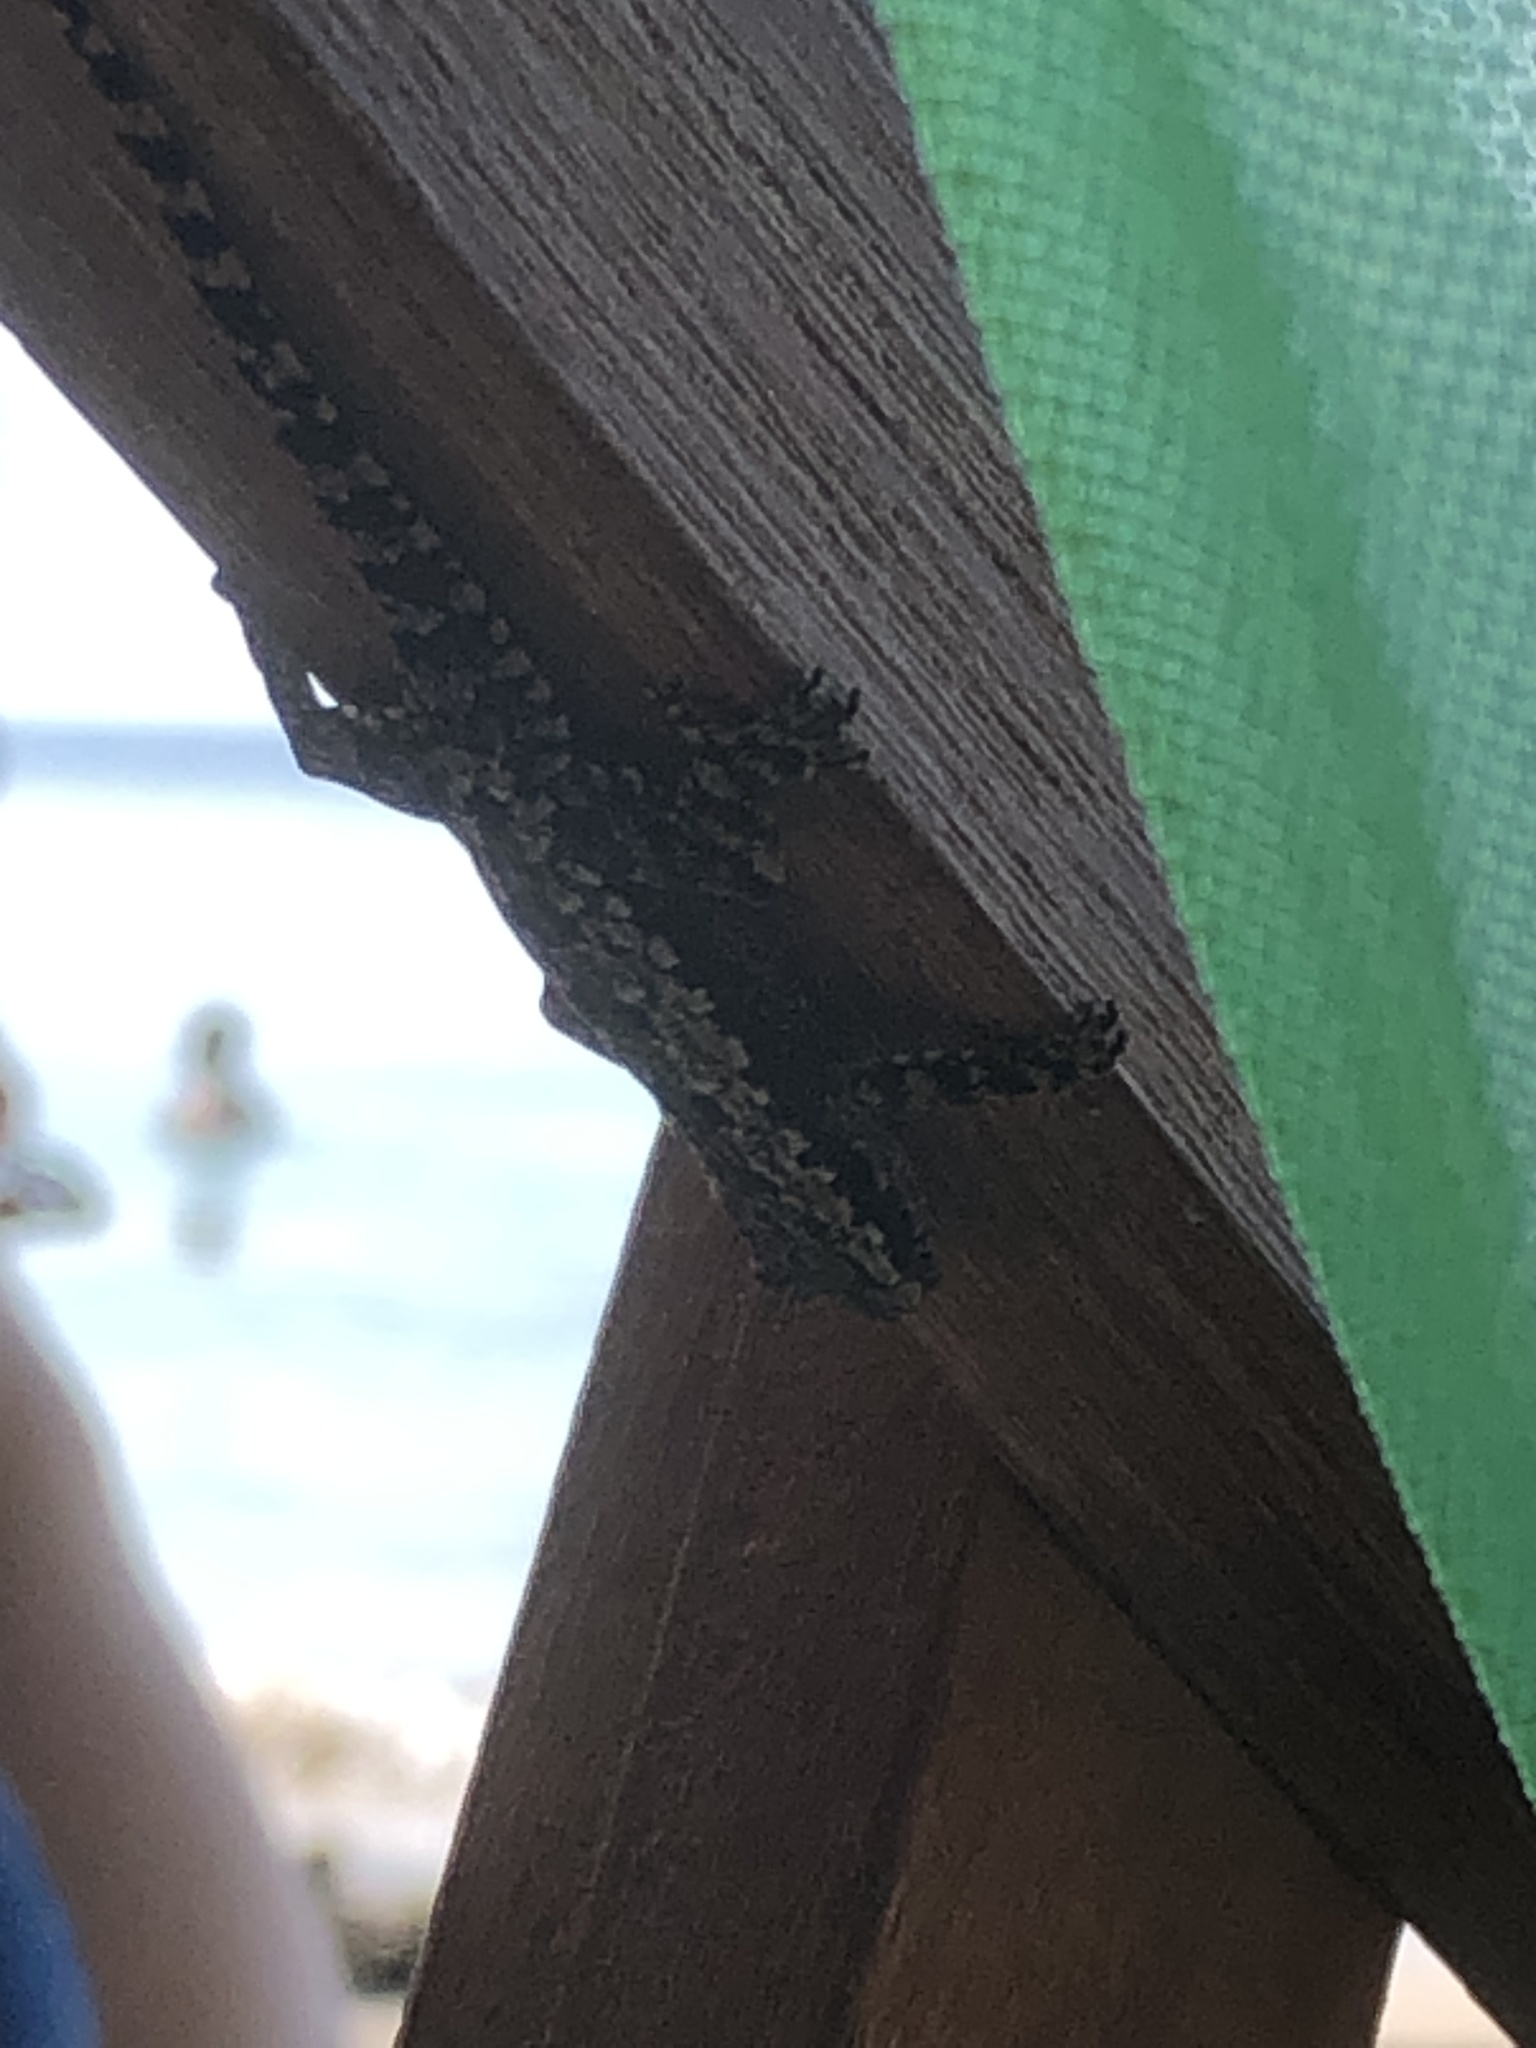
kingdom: Animalia
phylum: Chordata
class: Squamata
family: Gekkonidae
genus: Hemidactylus
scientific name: Hemidactylus platyurus
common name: Flat-tailed house gecko
